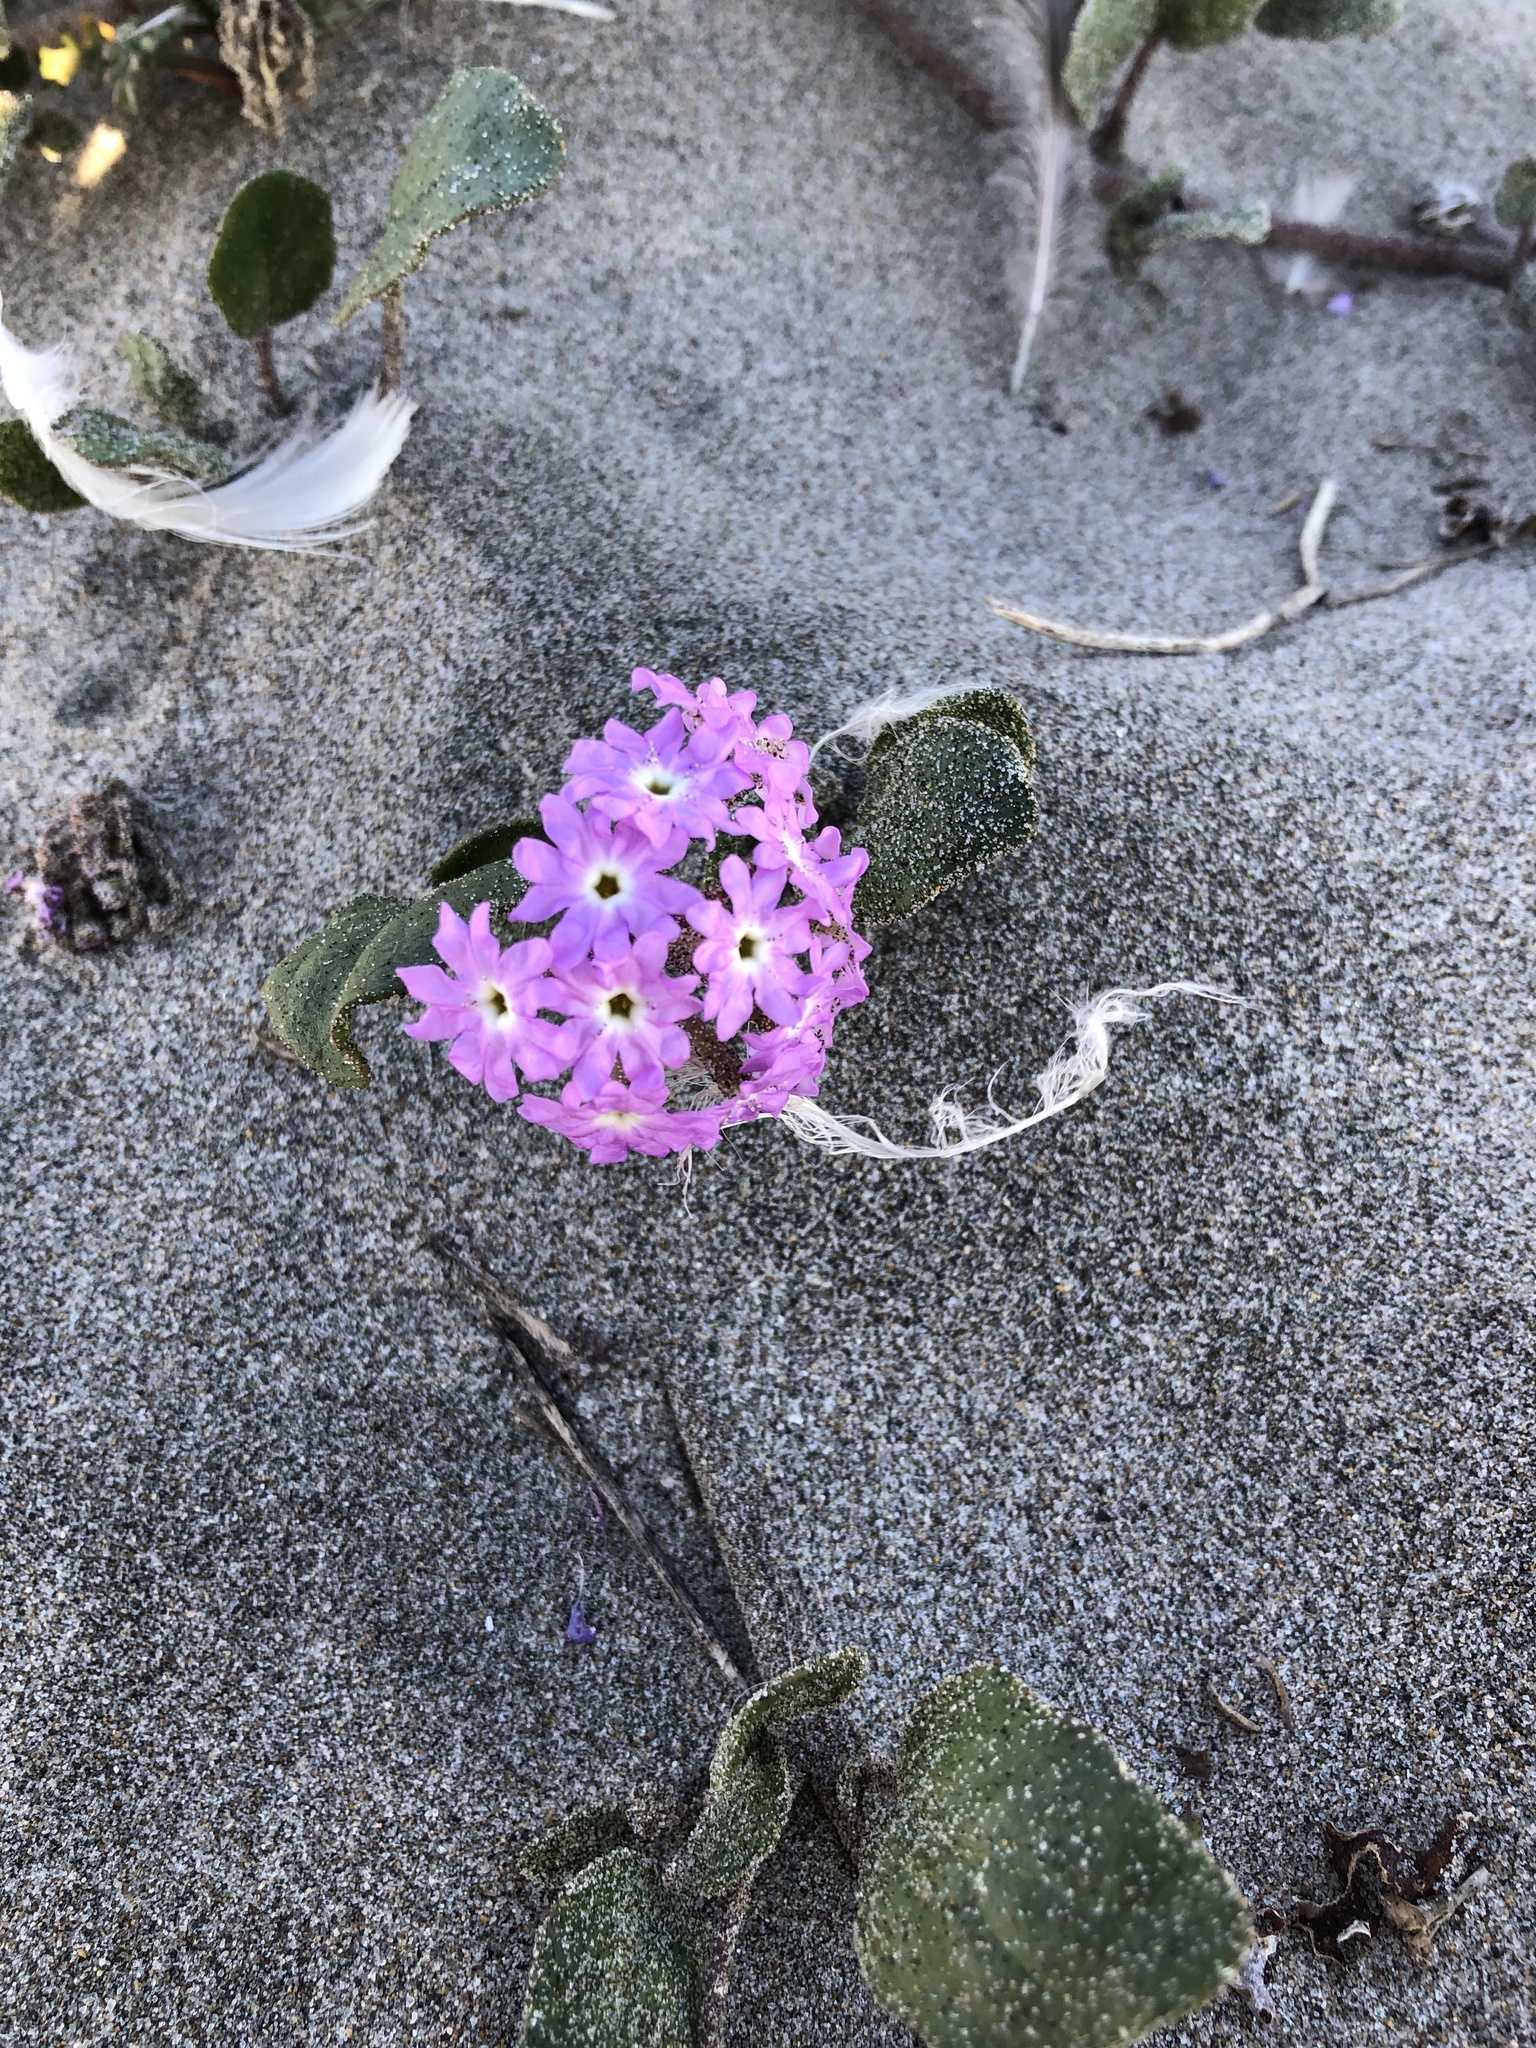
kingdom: Plantae
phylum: Tracheophyta
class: Magnoliopsida
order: Caryophyllales
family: Nyctaginaceae
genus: Abronia
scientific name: Abronia umbellata
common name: Sand-verbena
